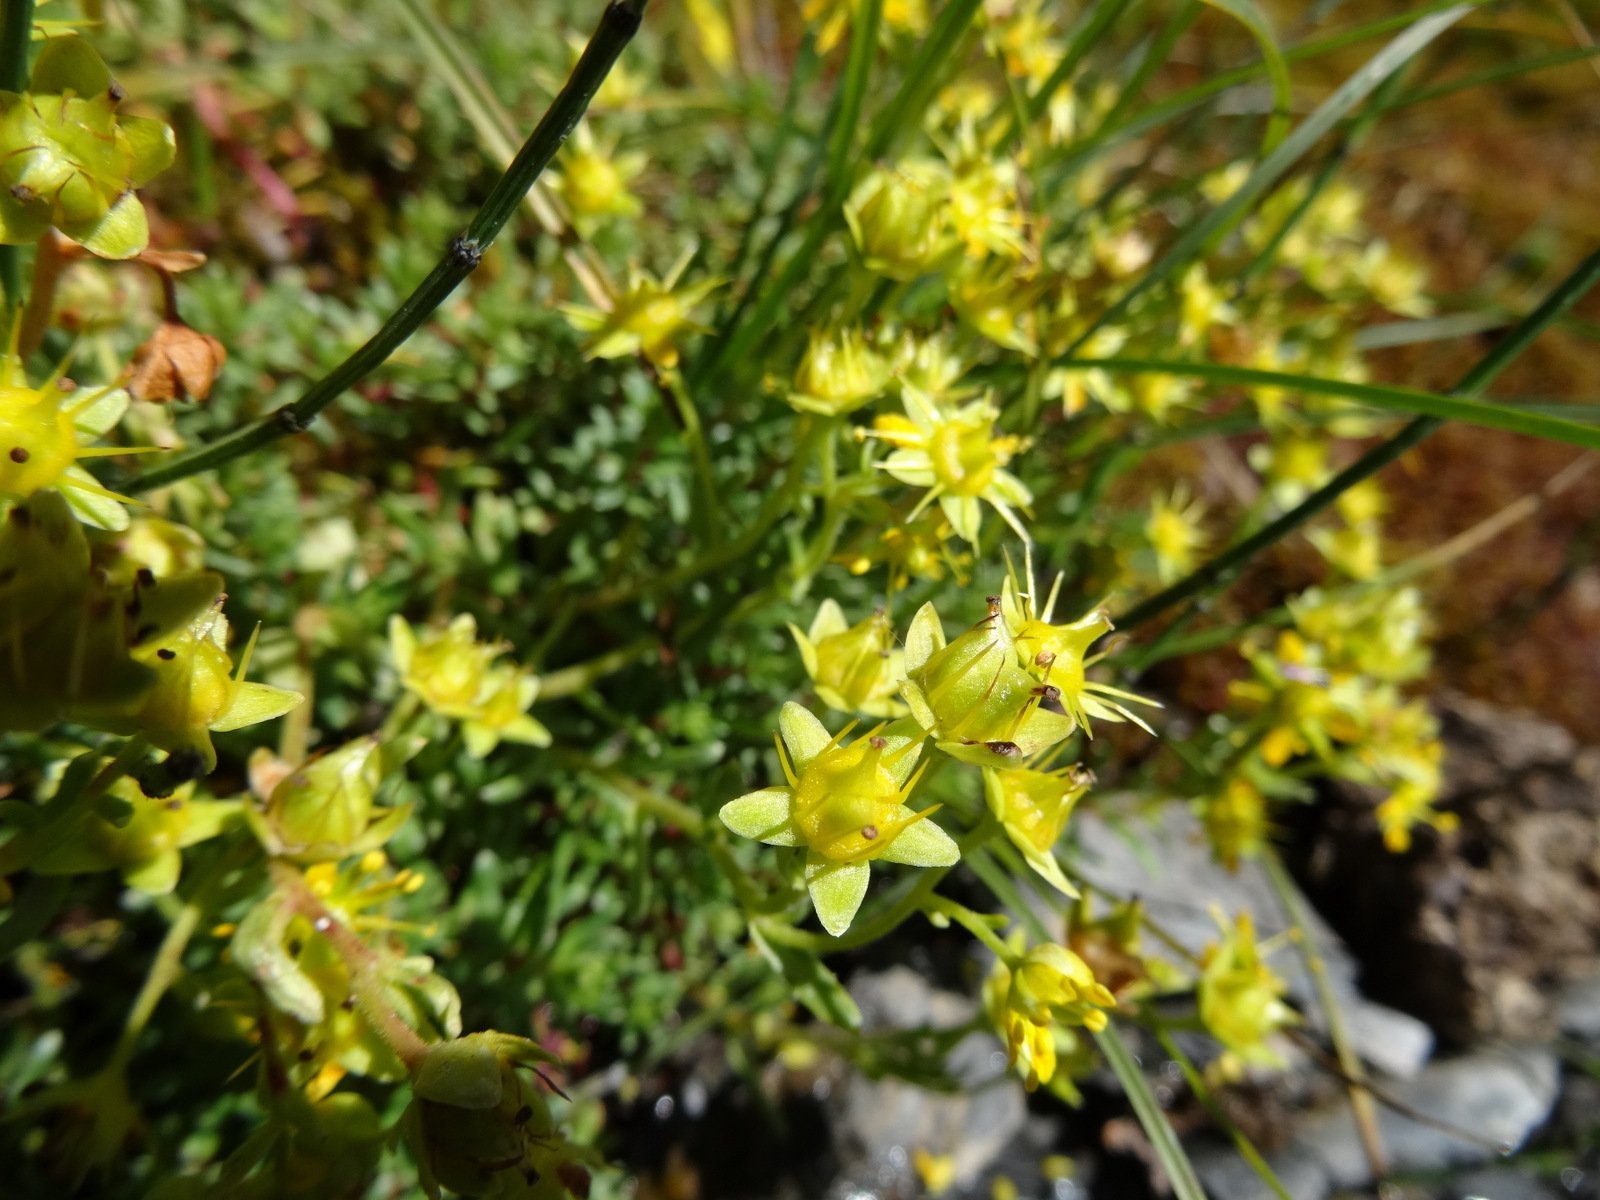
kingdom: Plantae
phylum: Tracheophyta
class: Magnoliopsida
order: Saxifragales
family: Saxifragaceae
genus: Saxifraga
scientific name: Saxifraga aizoides
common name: Yellow mountain saxifrage
